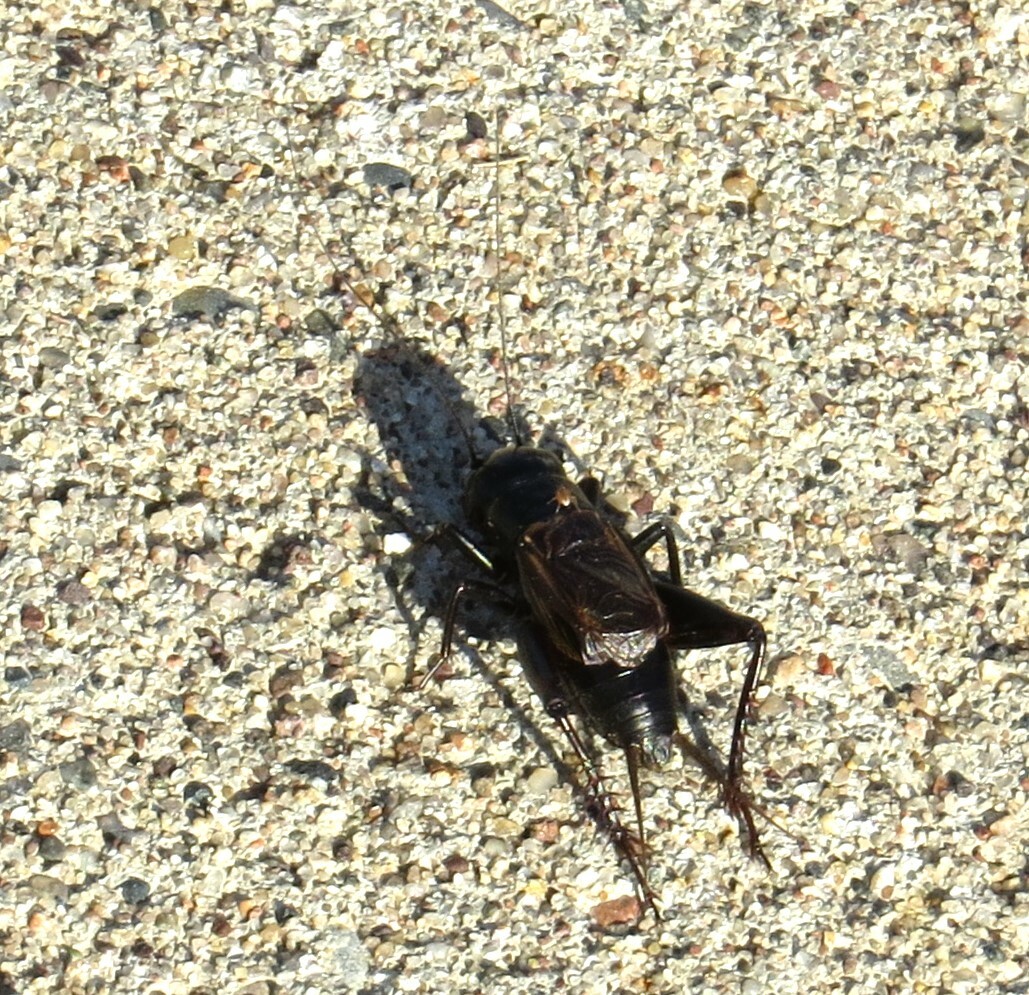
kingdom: Animalia
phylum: Arthropoda
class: Insecta
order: Orthoptera
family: Gryllidae
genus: Gryllus
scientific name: Gryllus pennsylvanicus
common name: Fall field cricket
